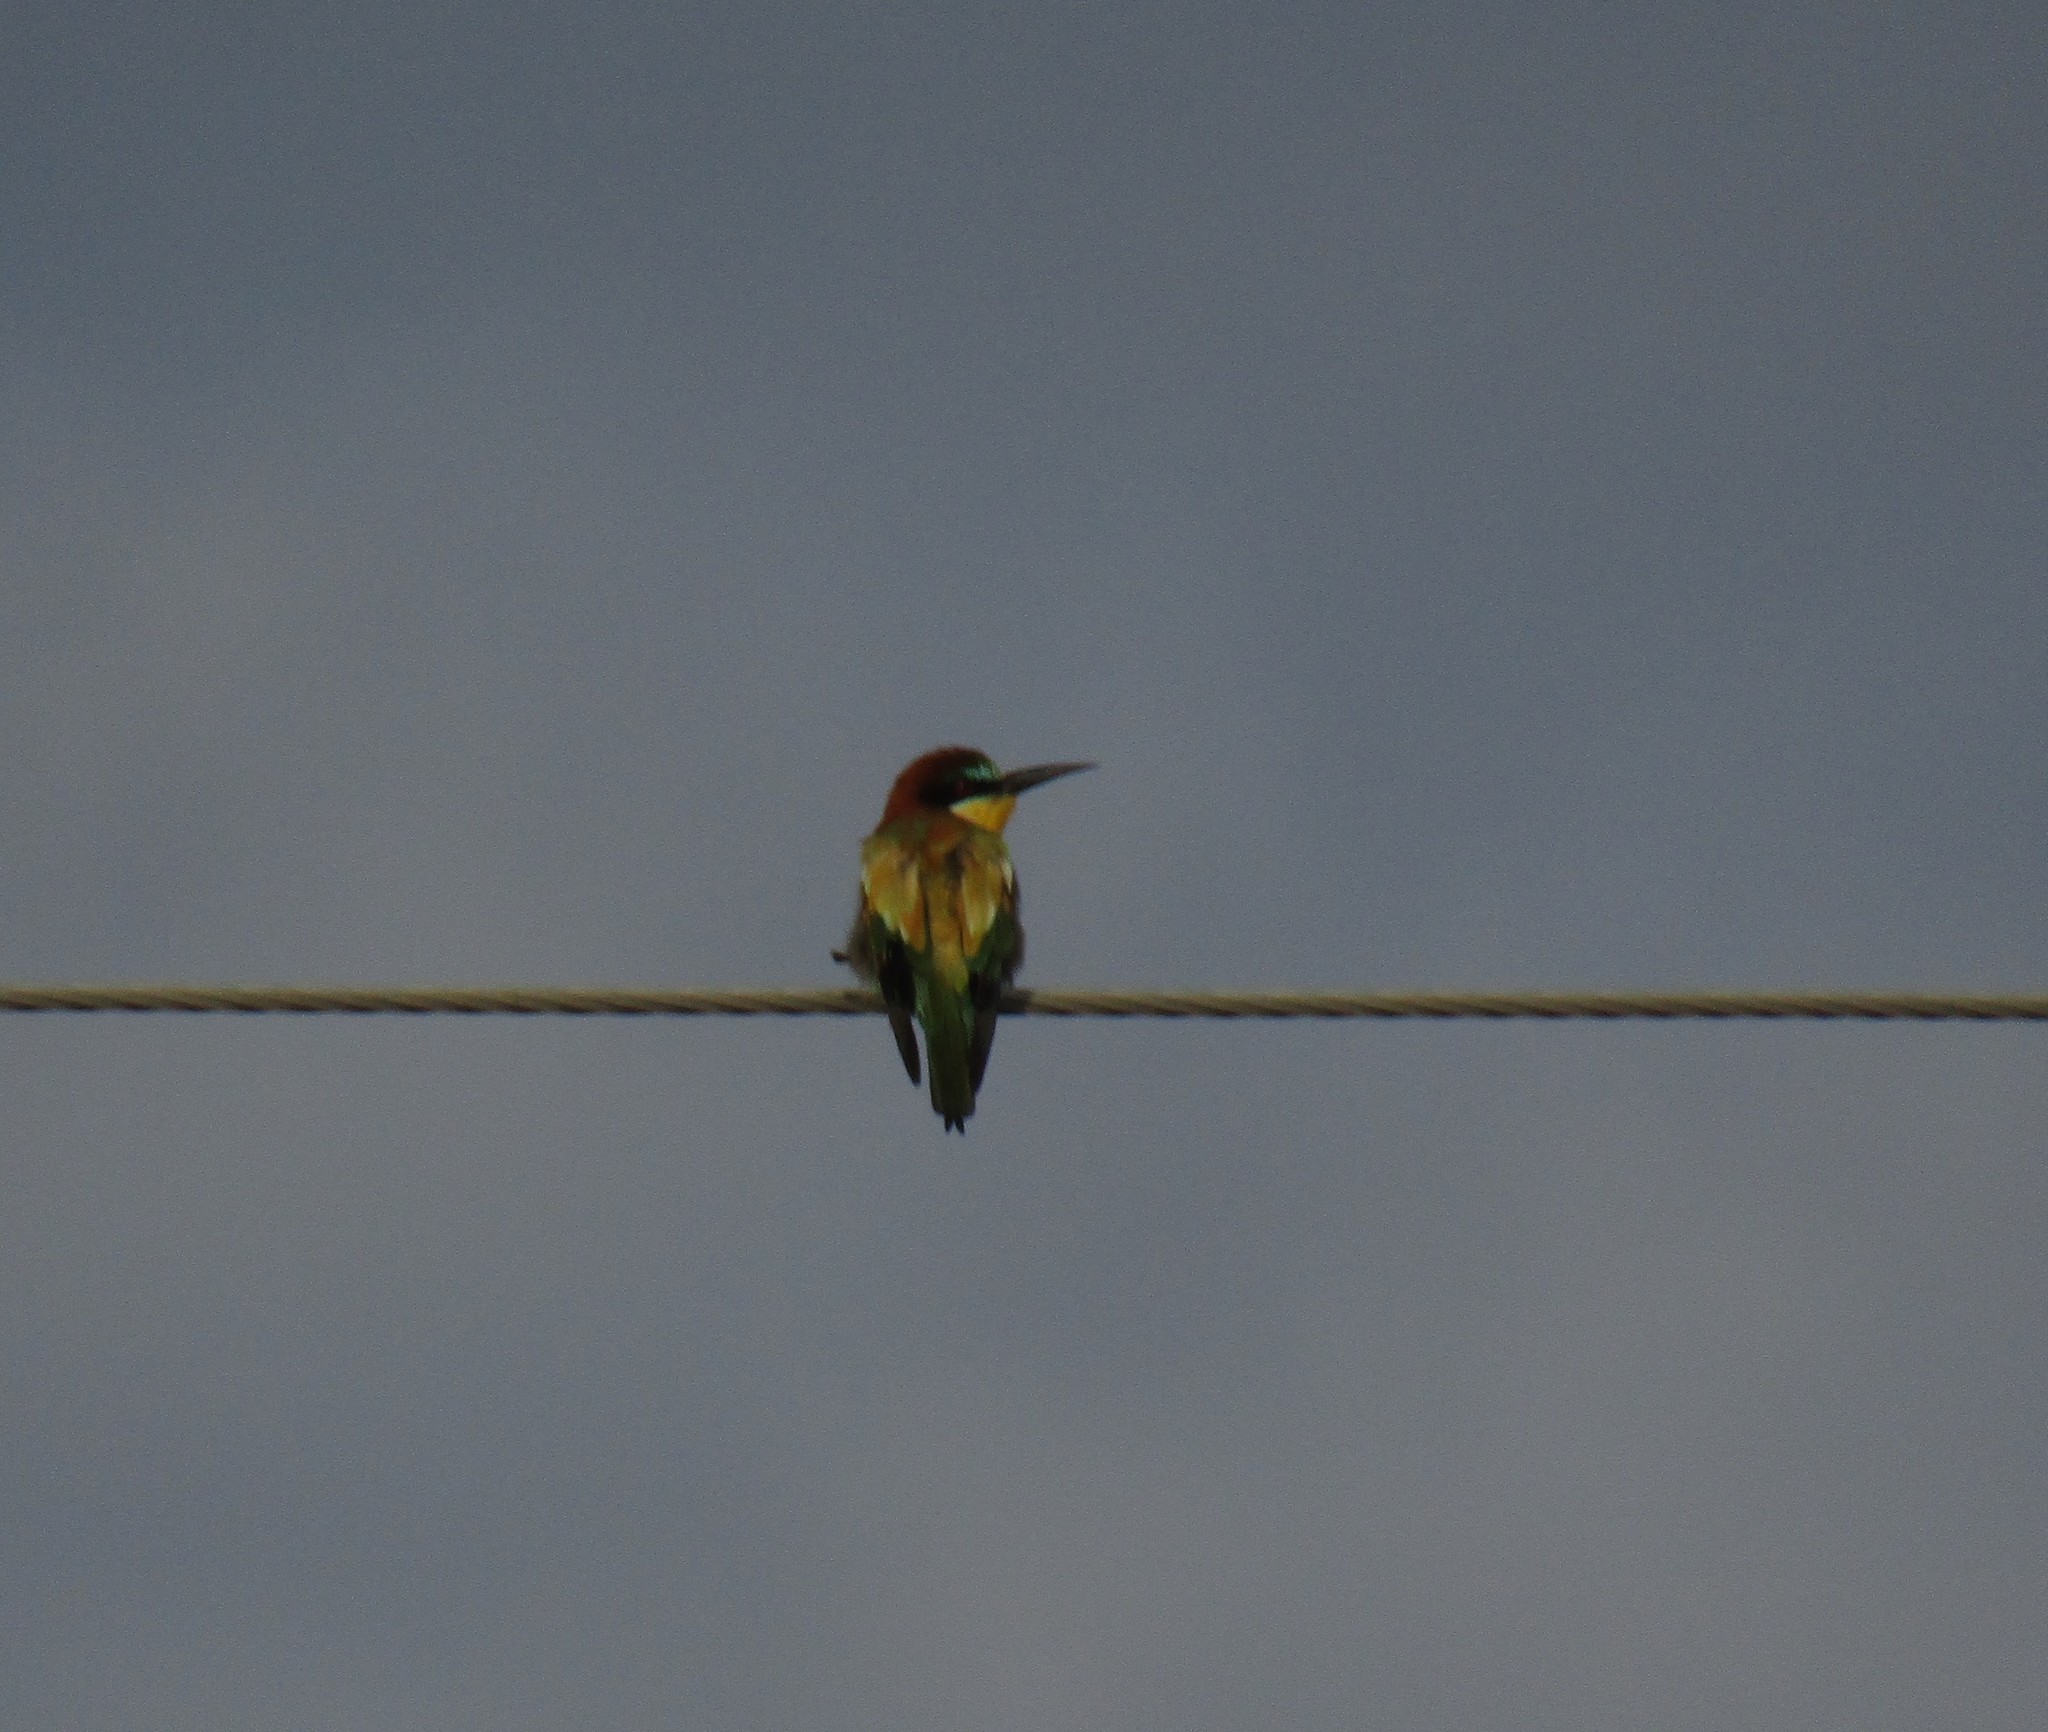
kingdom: Animalia
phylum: Chordata
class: Aves
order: Coraciiformes
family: Meropidae
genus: Merops
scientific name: Merops apiaster
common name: European bee-eater
